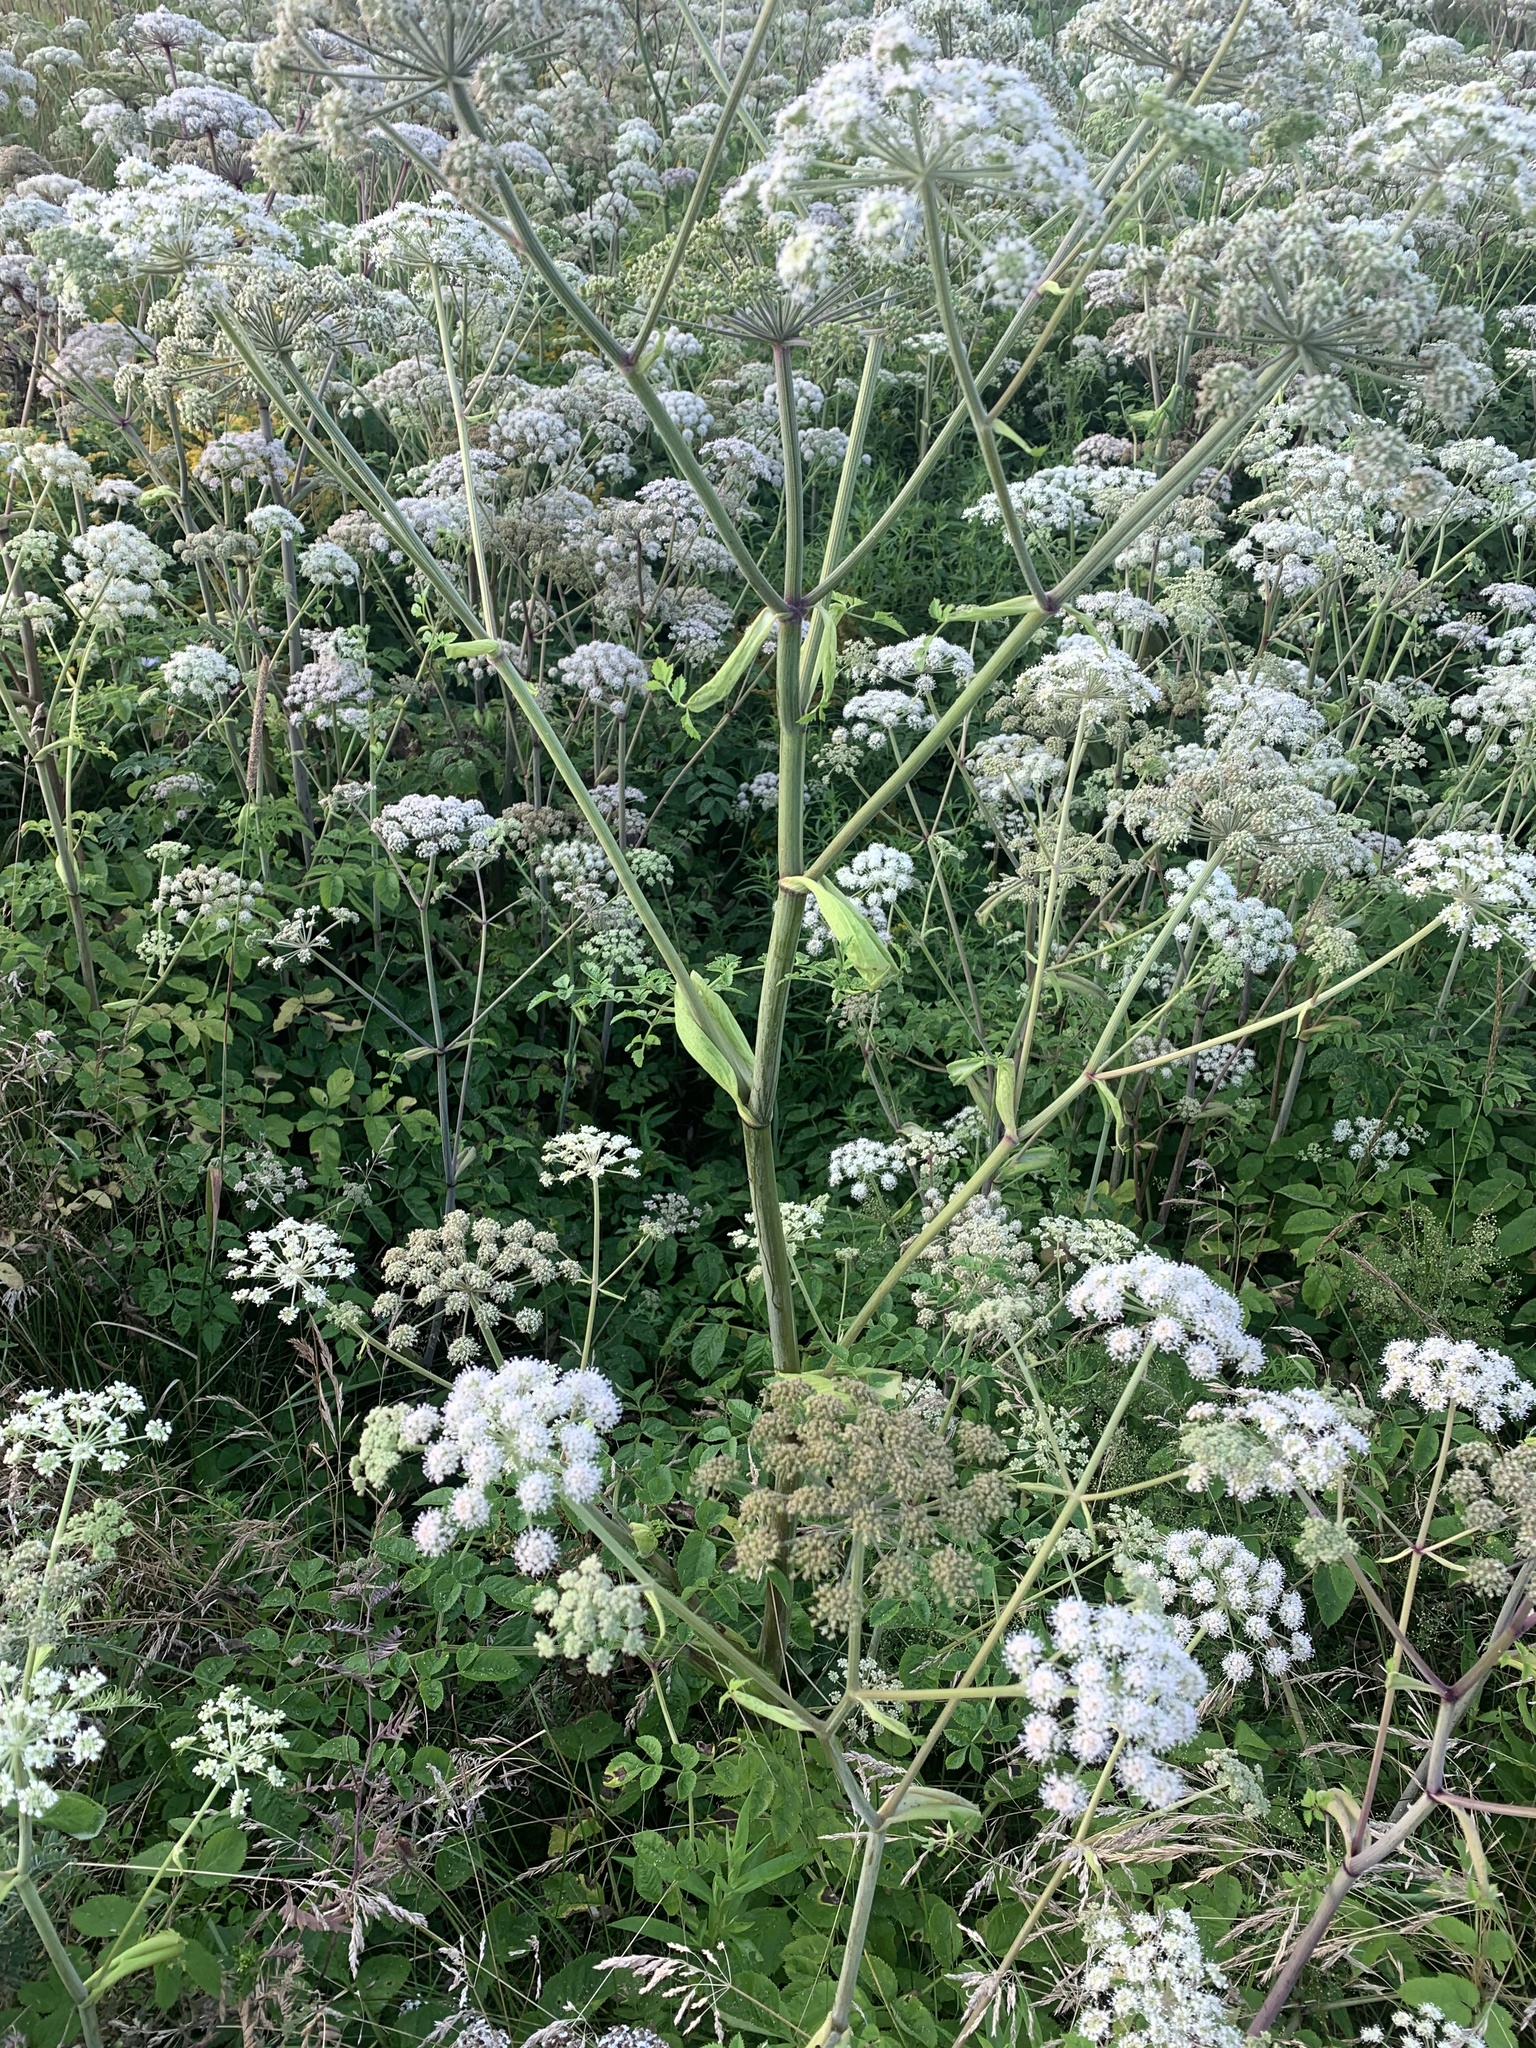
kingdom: Plantae
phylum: Tracheophyta
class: Magnoliopsida
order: Apiales
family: Apiaceae
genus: Angelica
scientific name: Angelica sylvestris
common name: Wild angelica
